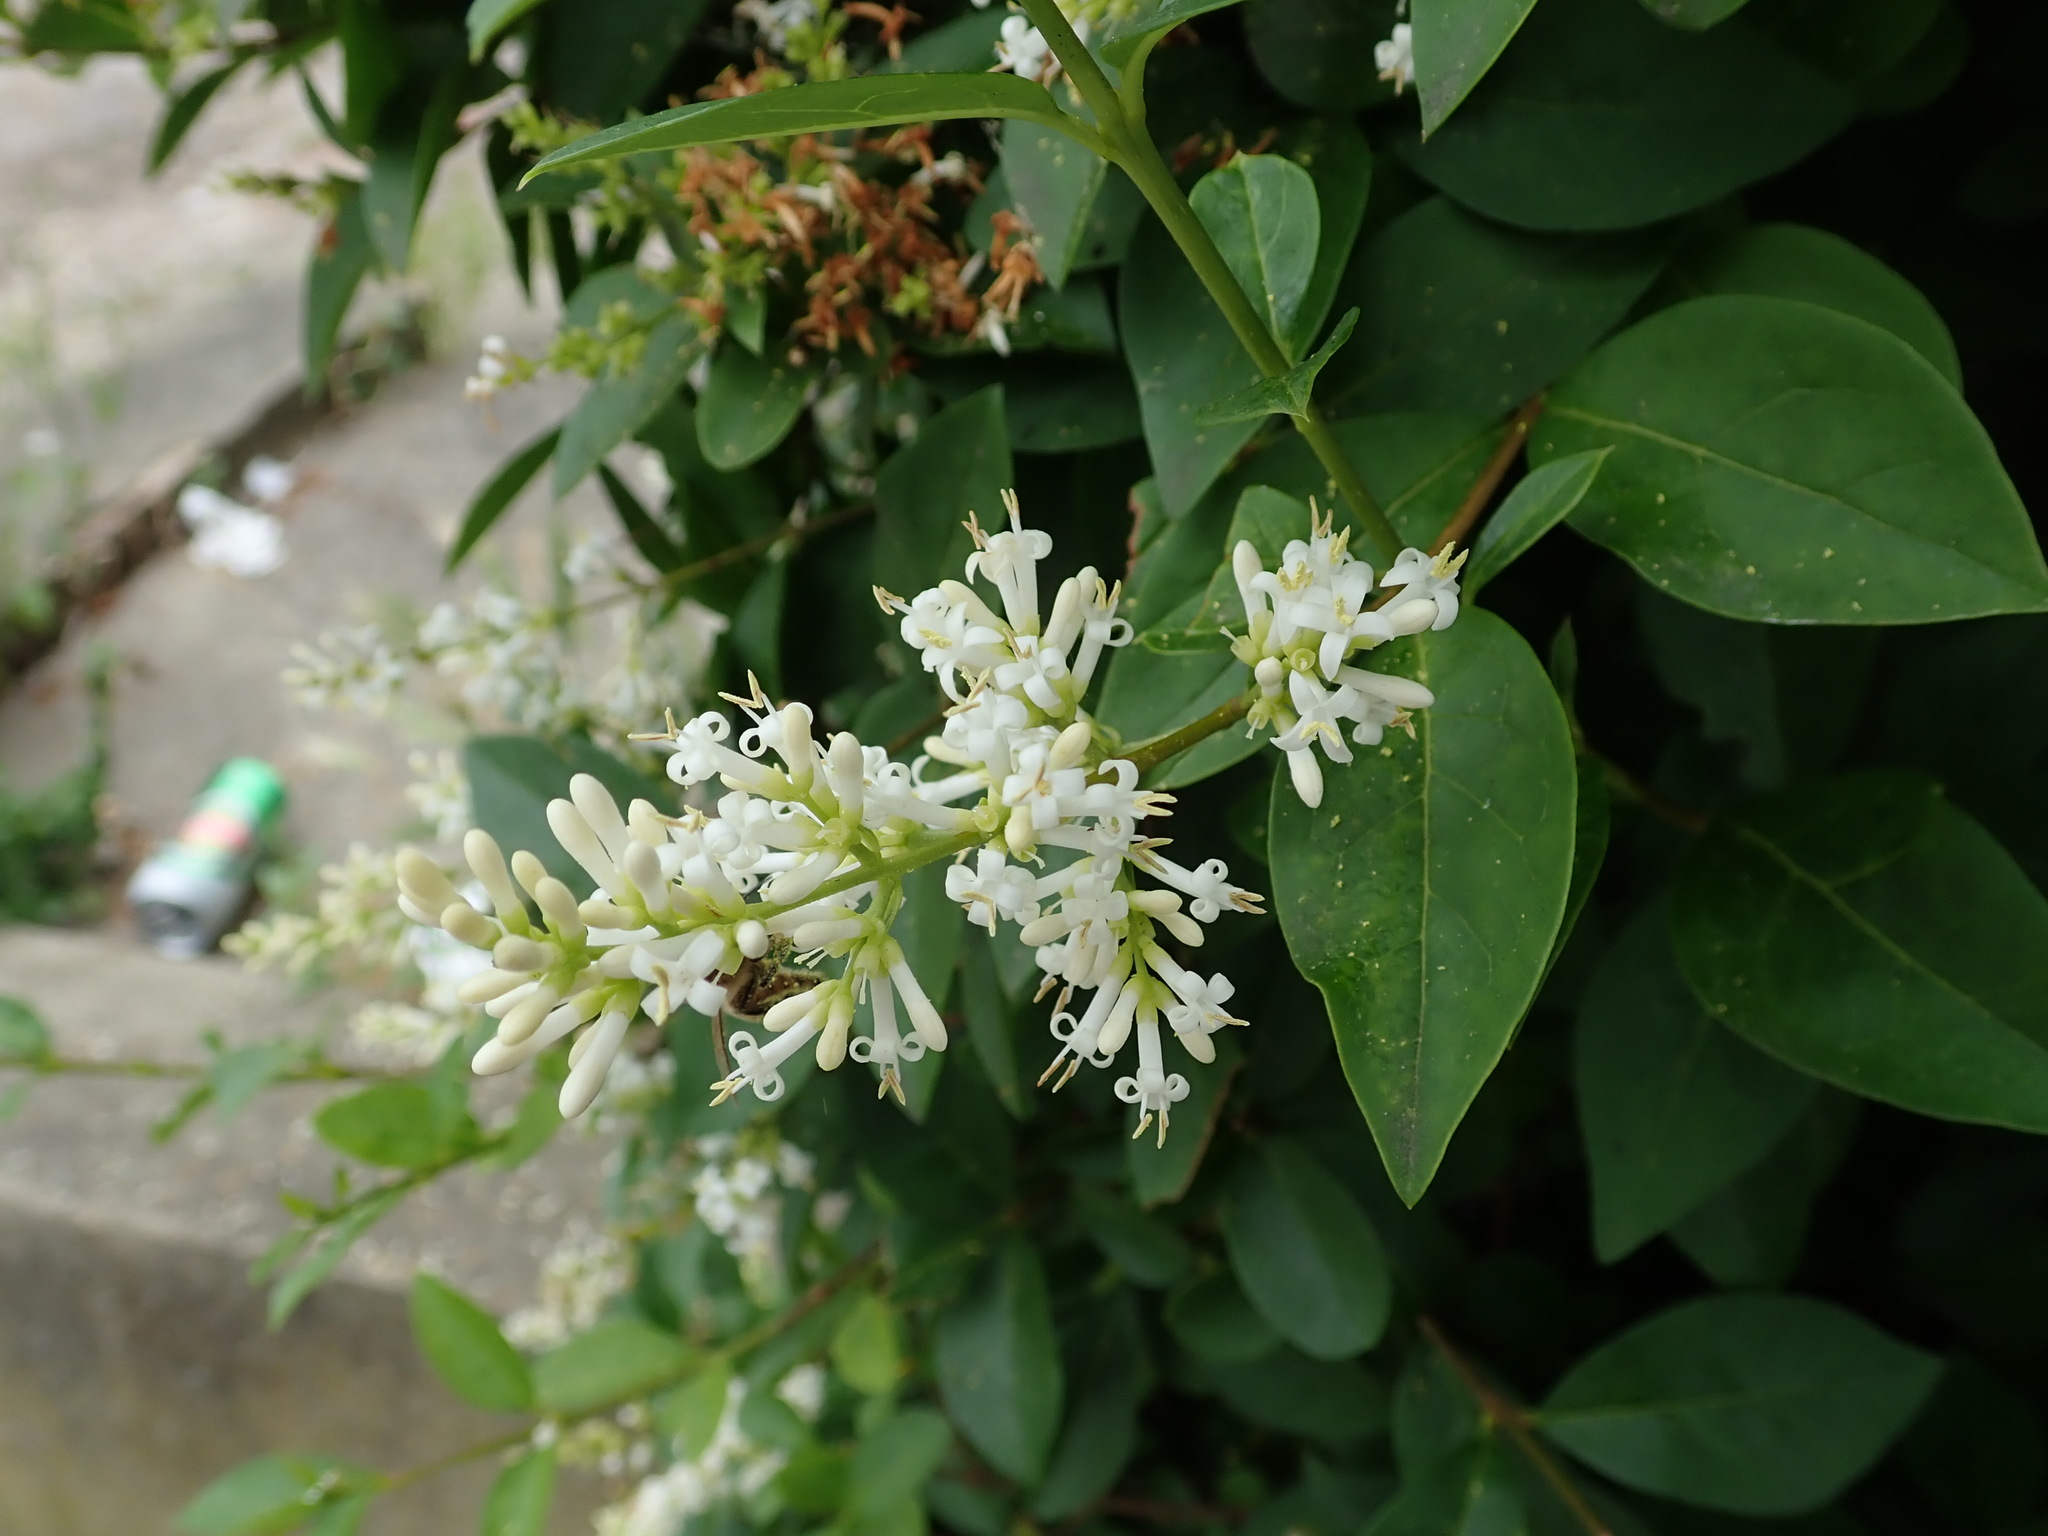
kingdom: Plantae
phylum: Tracheophyta
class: Magnoliopsida
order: Lamiales
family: Oleaceae
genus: Ligustrum
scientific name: Ligustrum ovalifolium
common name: California privet
